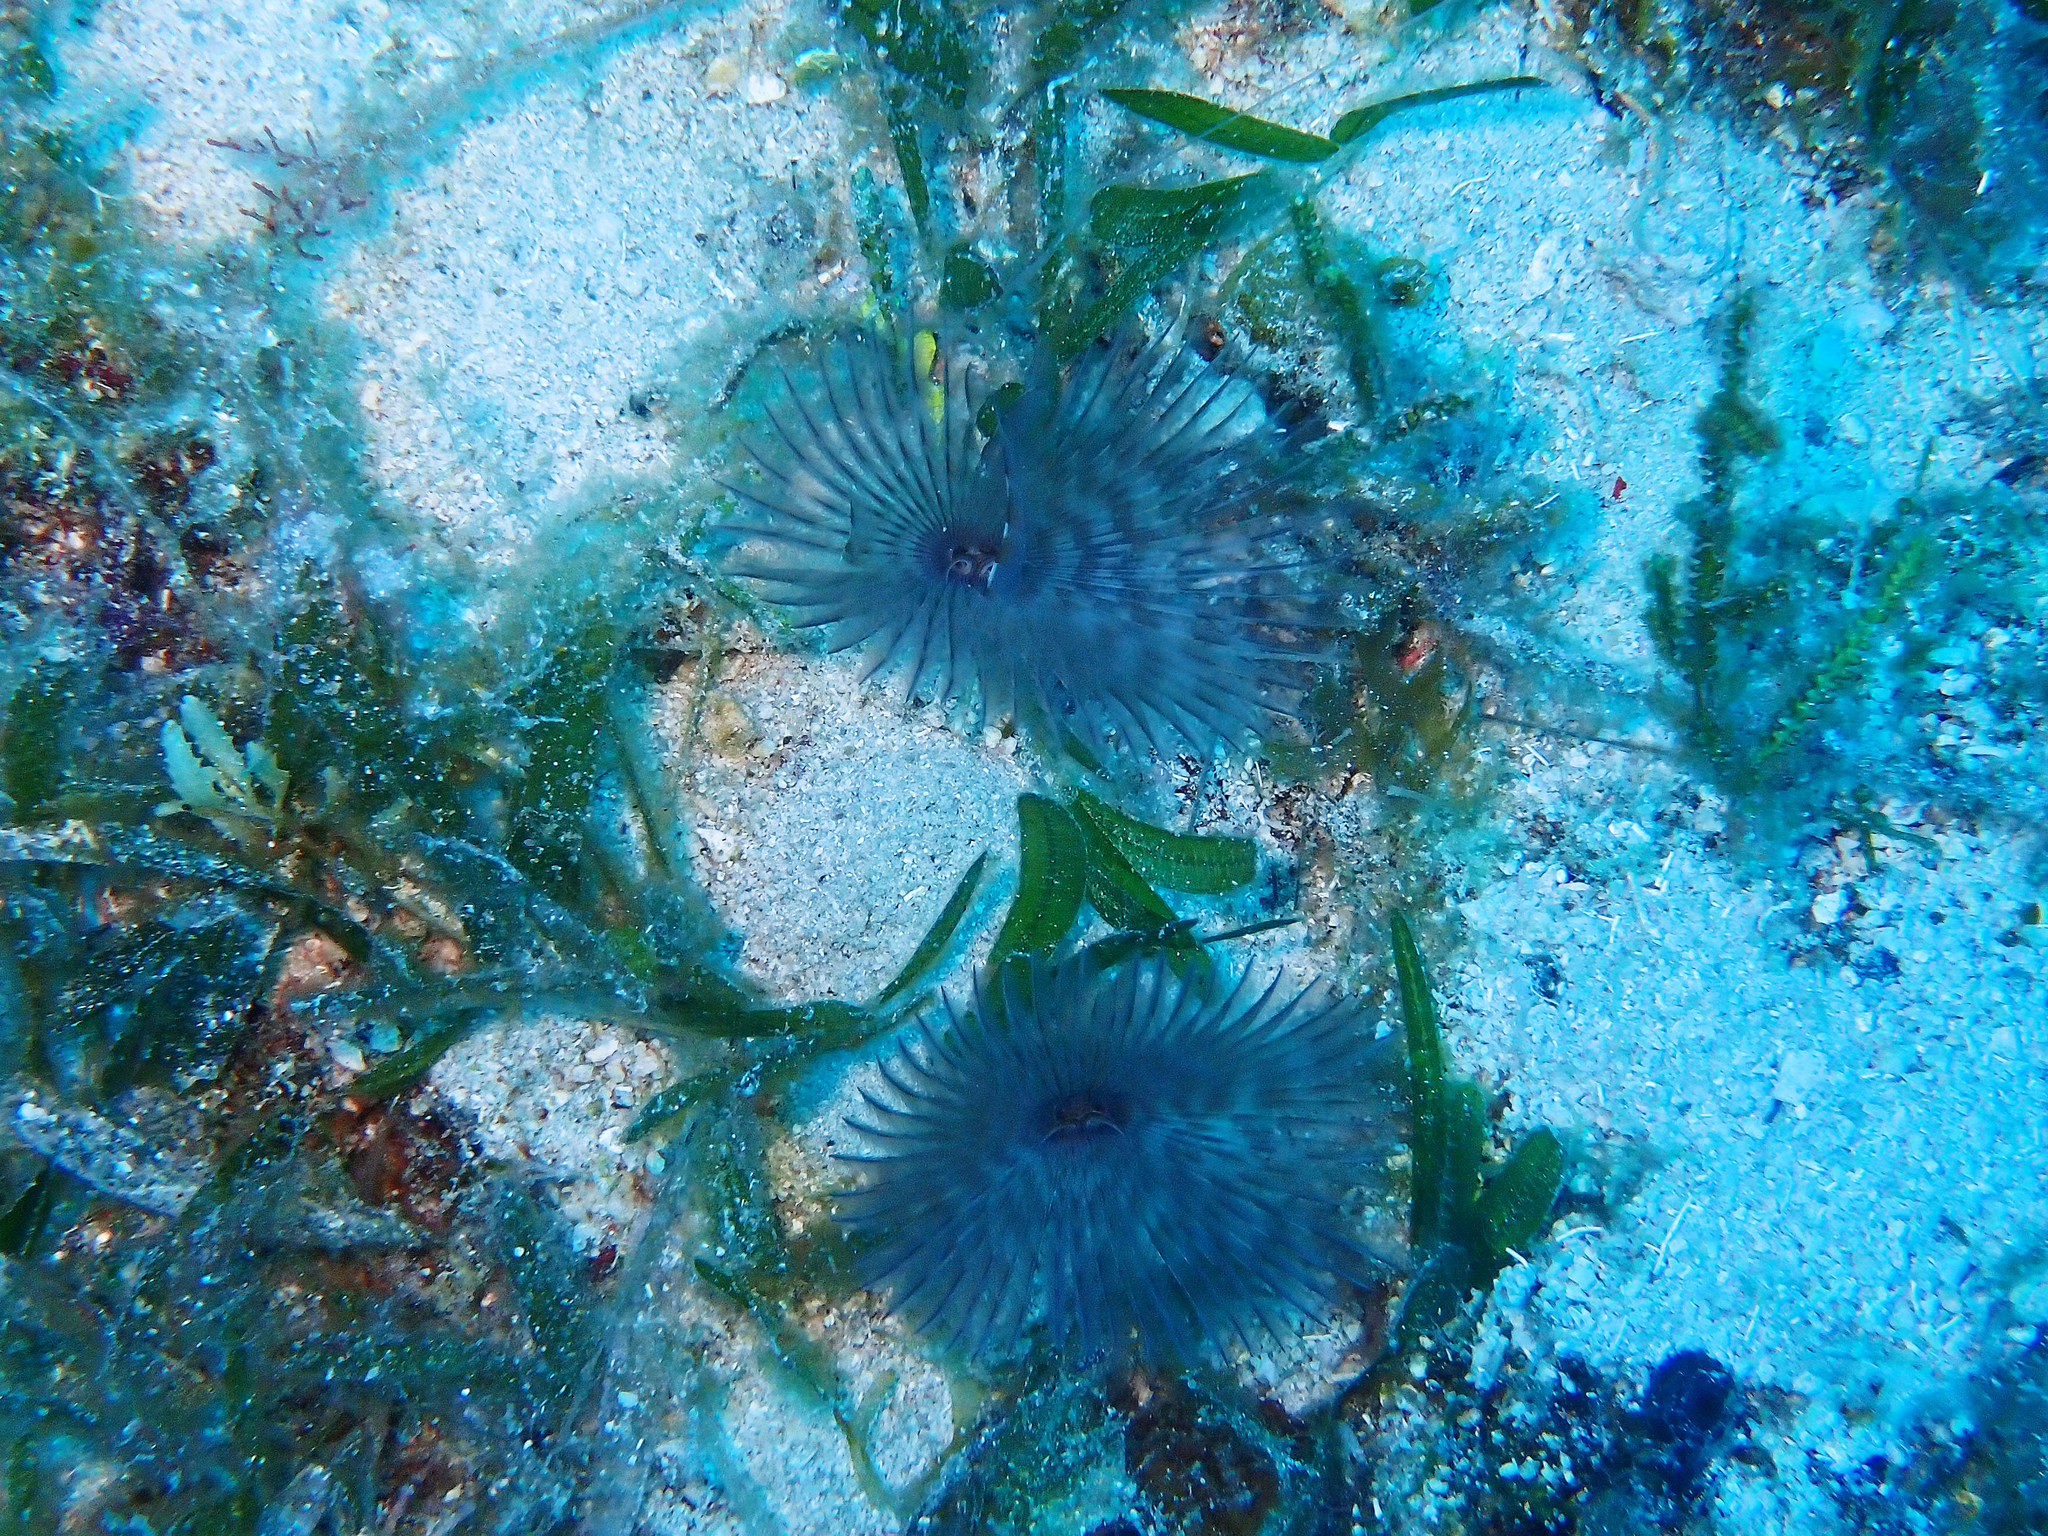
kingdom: Animalia
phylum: Annelida
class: Polychaeta
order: Sabellida
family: Sabellidae
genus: Bispira
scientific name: Bispira melanostigma
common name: Variegated feather duster
